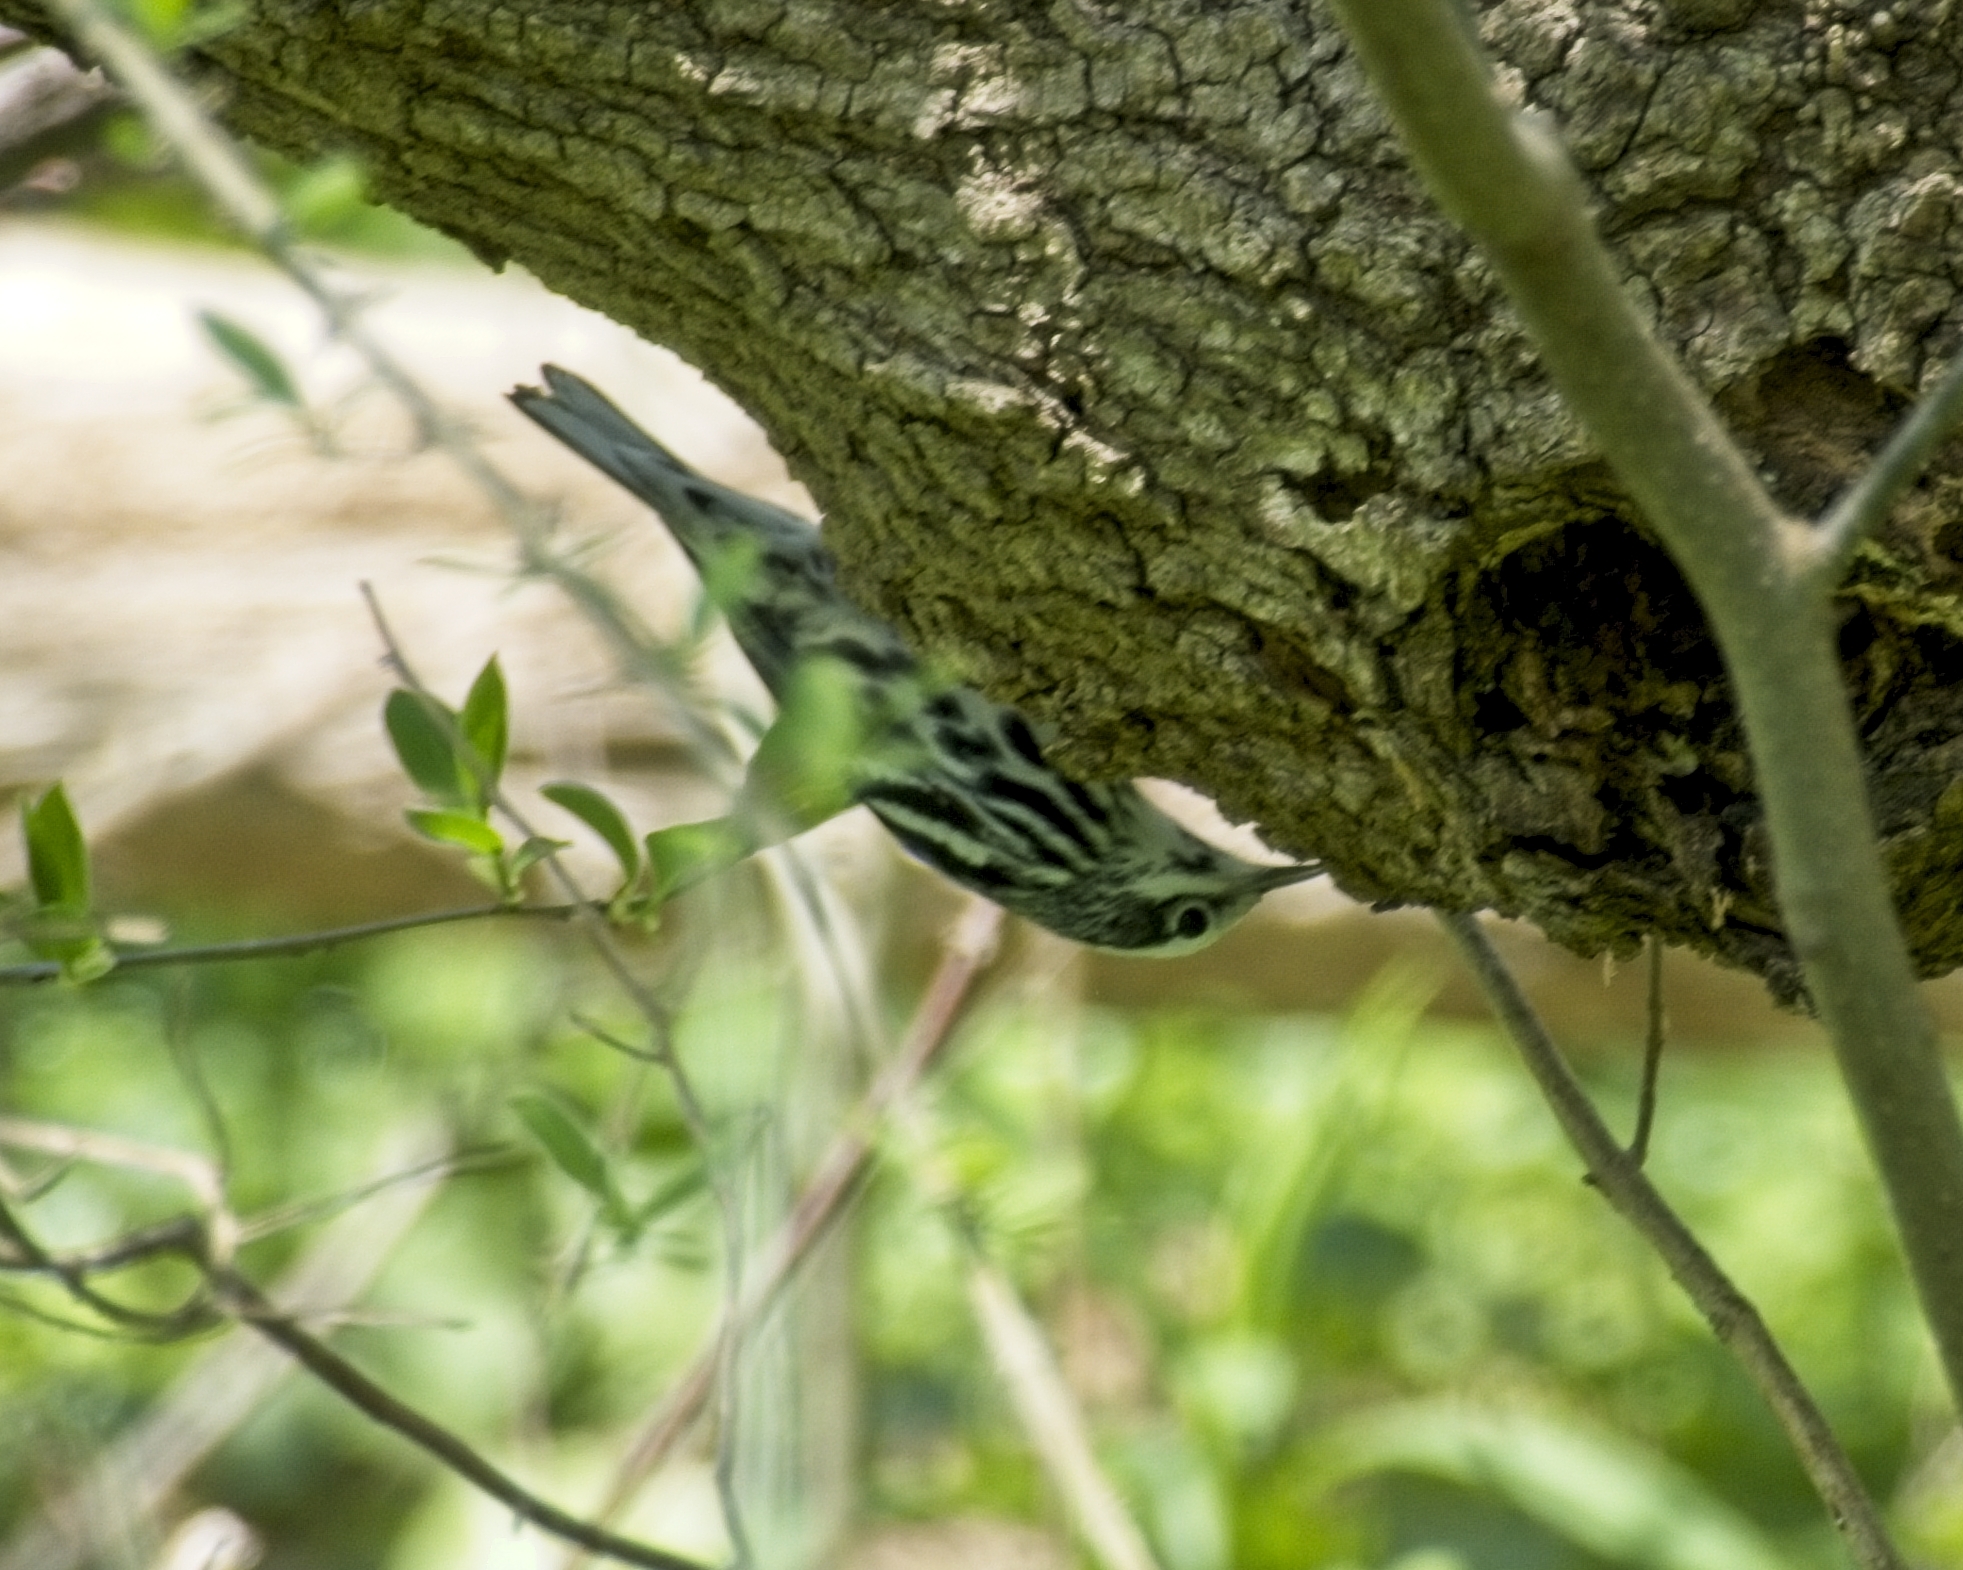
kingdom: Animalia
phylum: Chordata
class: Aves
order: Passeriformes
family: Parulidae
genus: Mniotilta
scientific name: Mniotilta varia
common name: Black-and-white warbler
